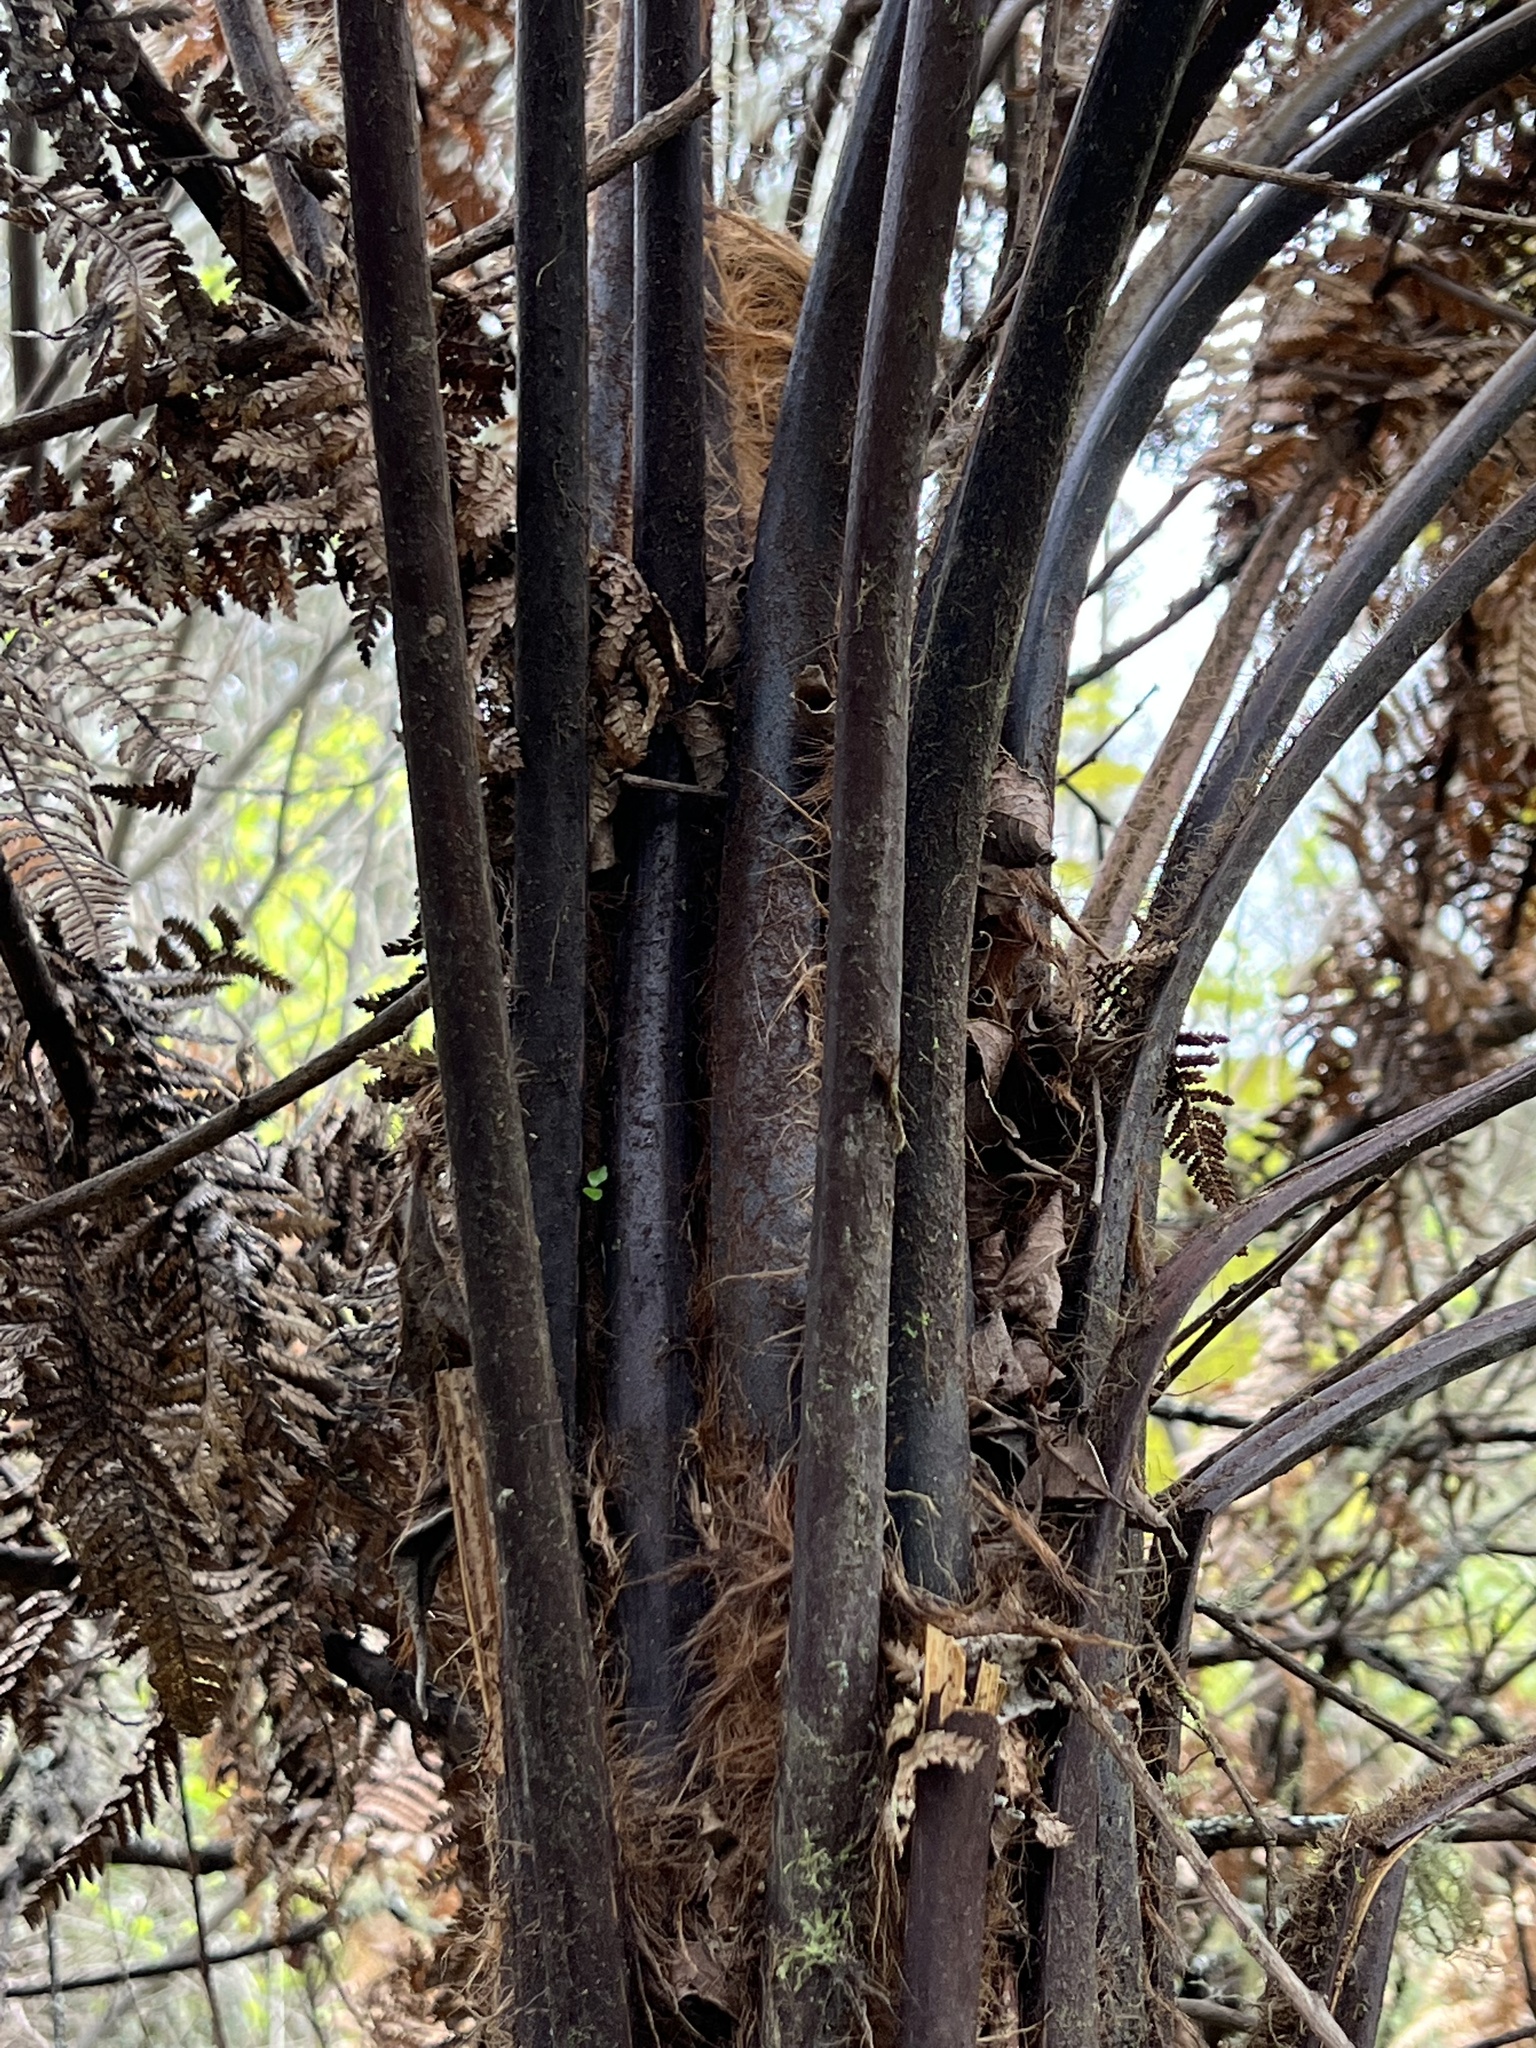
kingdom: Plantae
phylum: Tracheophyta
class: Polypodiopsida
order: Cyatheales
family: Dicksoniaceae
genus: Dicksonia
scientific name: Dicksonia squarrosa
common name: Hard treefern
